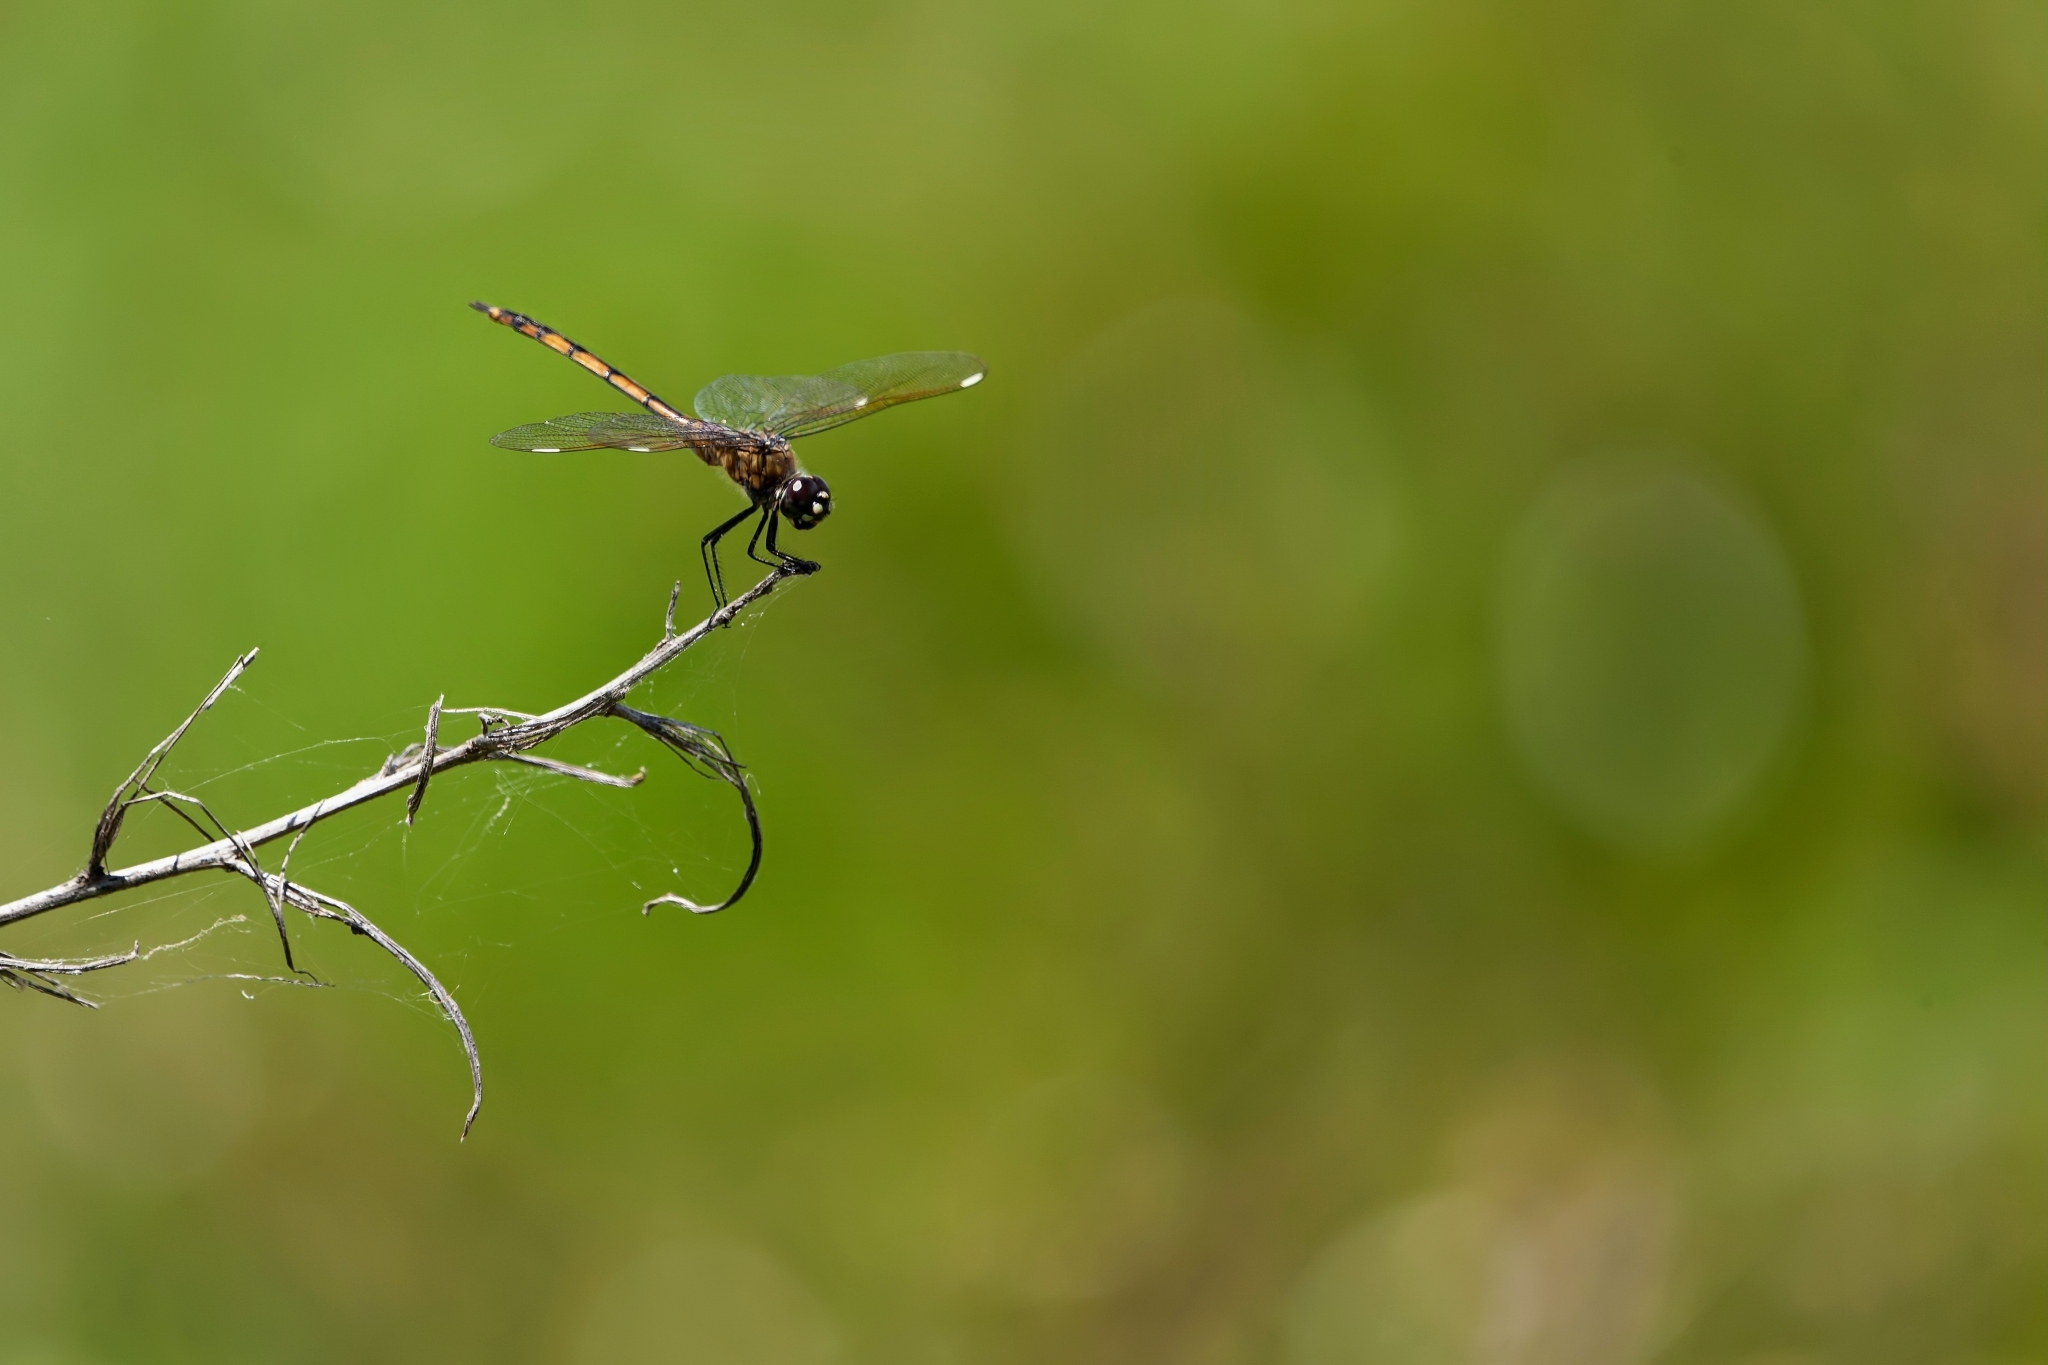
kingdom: Animalia
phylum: Arthropoda
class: Insecta
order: Odonata
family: Libellulidae
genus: Brachymesia
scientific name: Brachymesia gravida
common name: Four-spotted pennant
